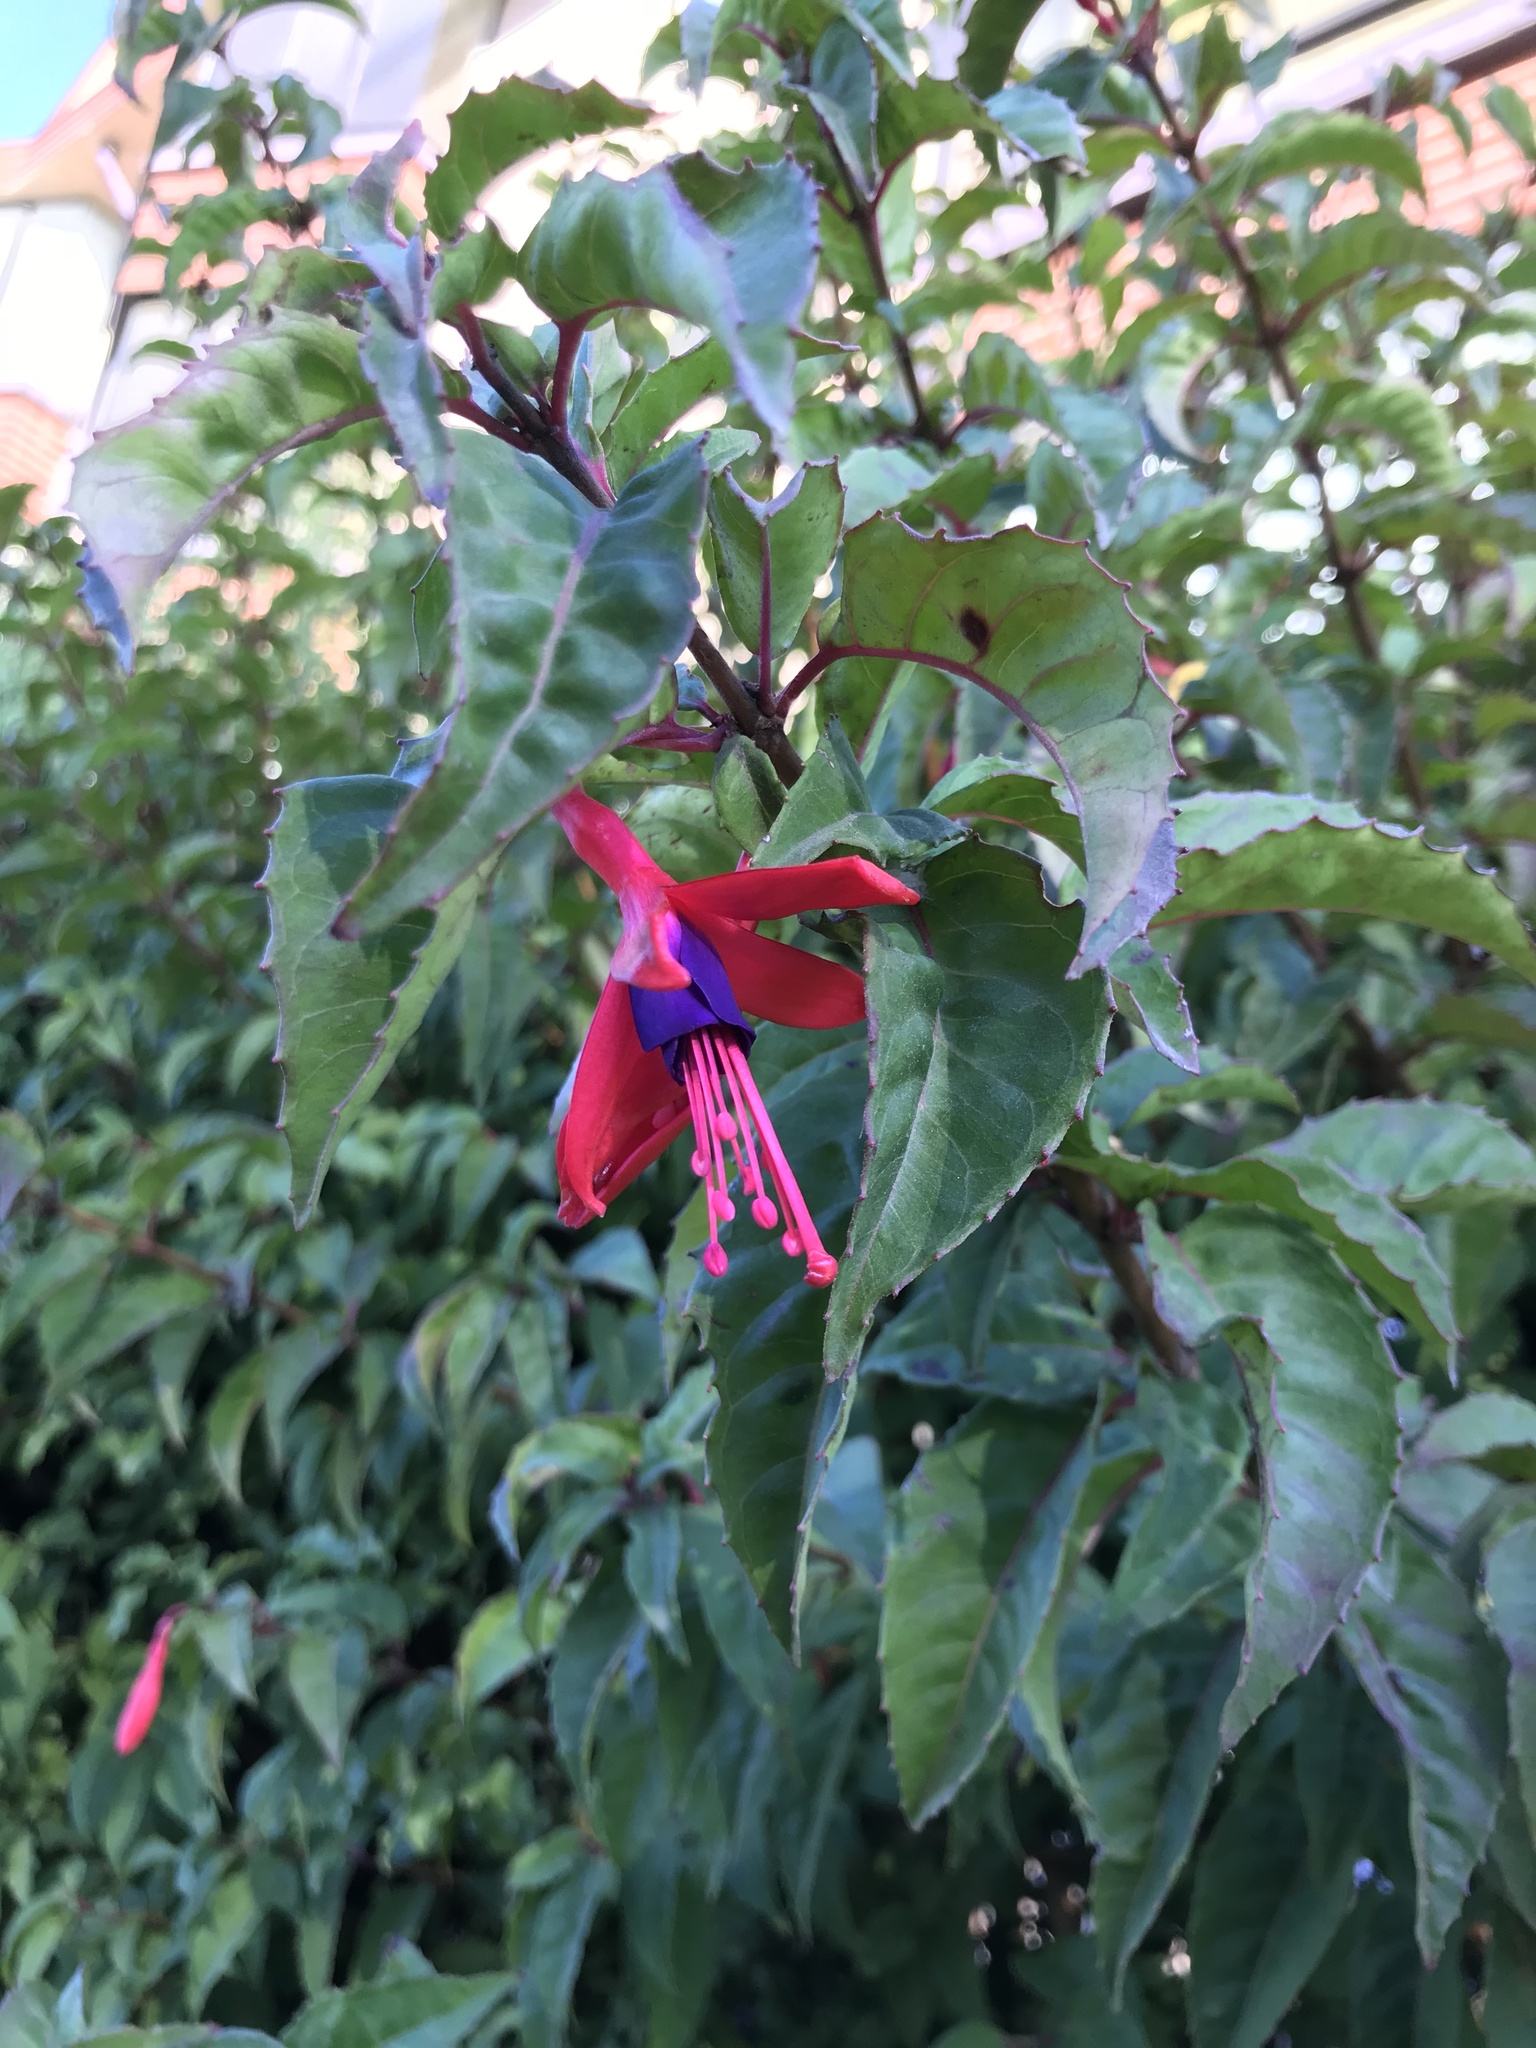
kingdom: Plantae
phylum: Tracheophyta
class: Magnoliopsida
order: Myrtales
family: Onagraceae
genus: Fuchsia
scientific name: Fuchsia magellanica
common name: Hardy fuchsia
